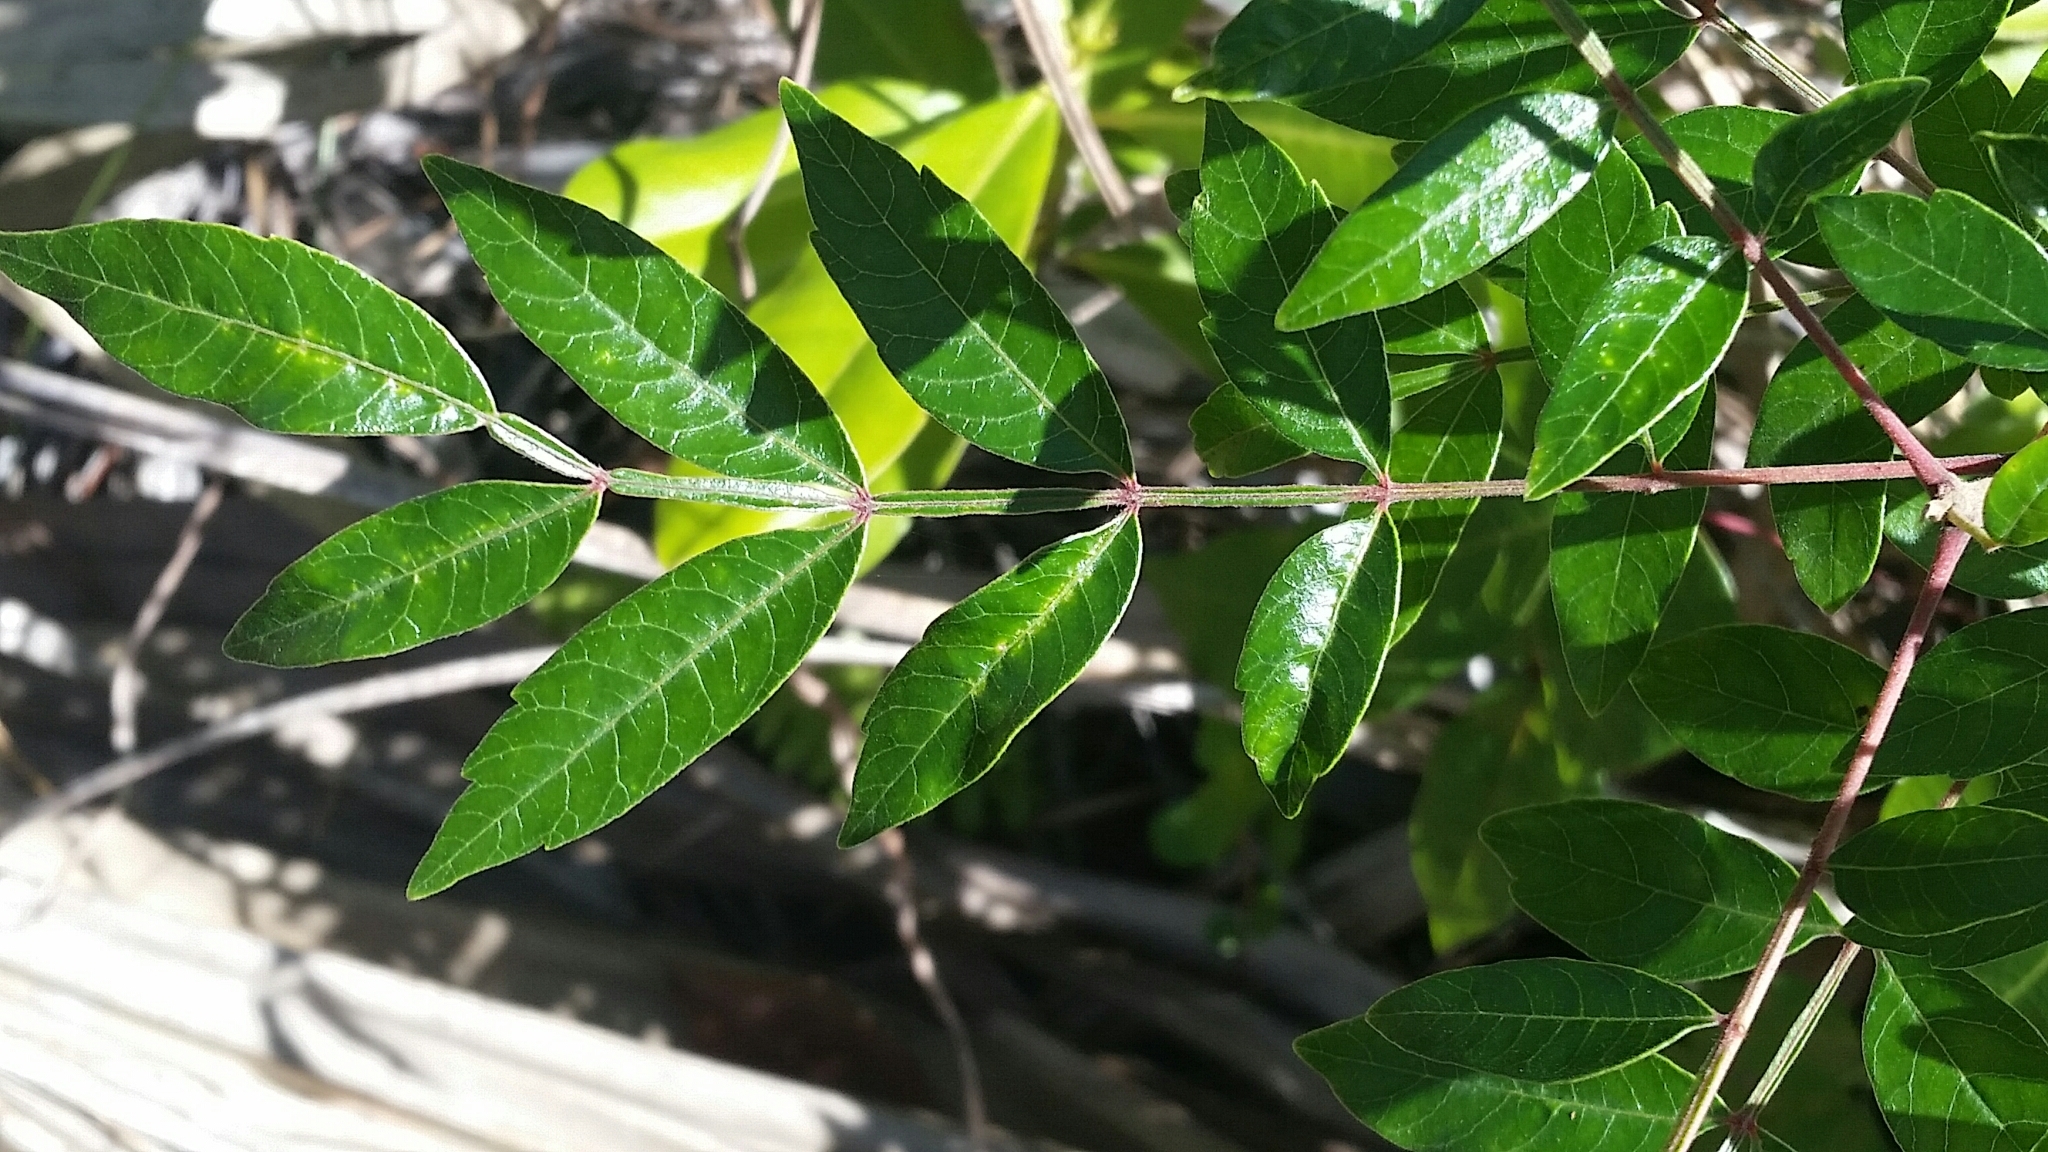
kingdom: Plantae
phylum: Tracheophyta
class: Magnoliopsida
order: Sapindales
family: Anacardiaceae
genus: Rhus
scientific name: Rhus copallina
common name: Shining sumac
